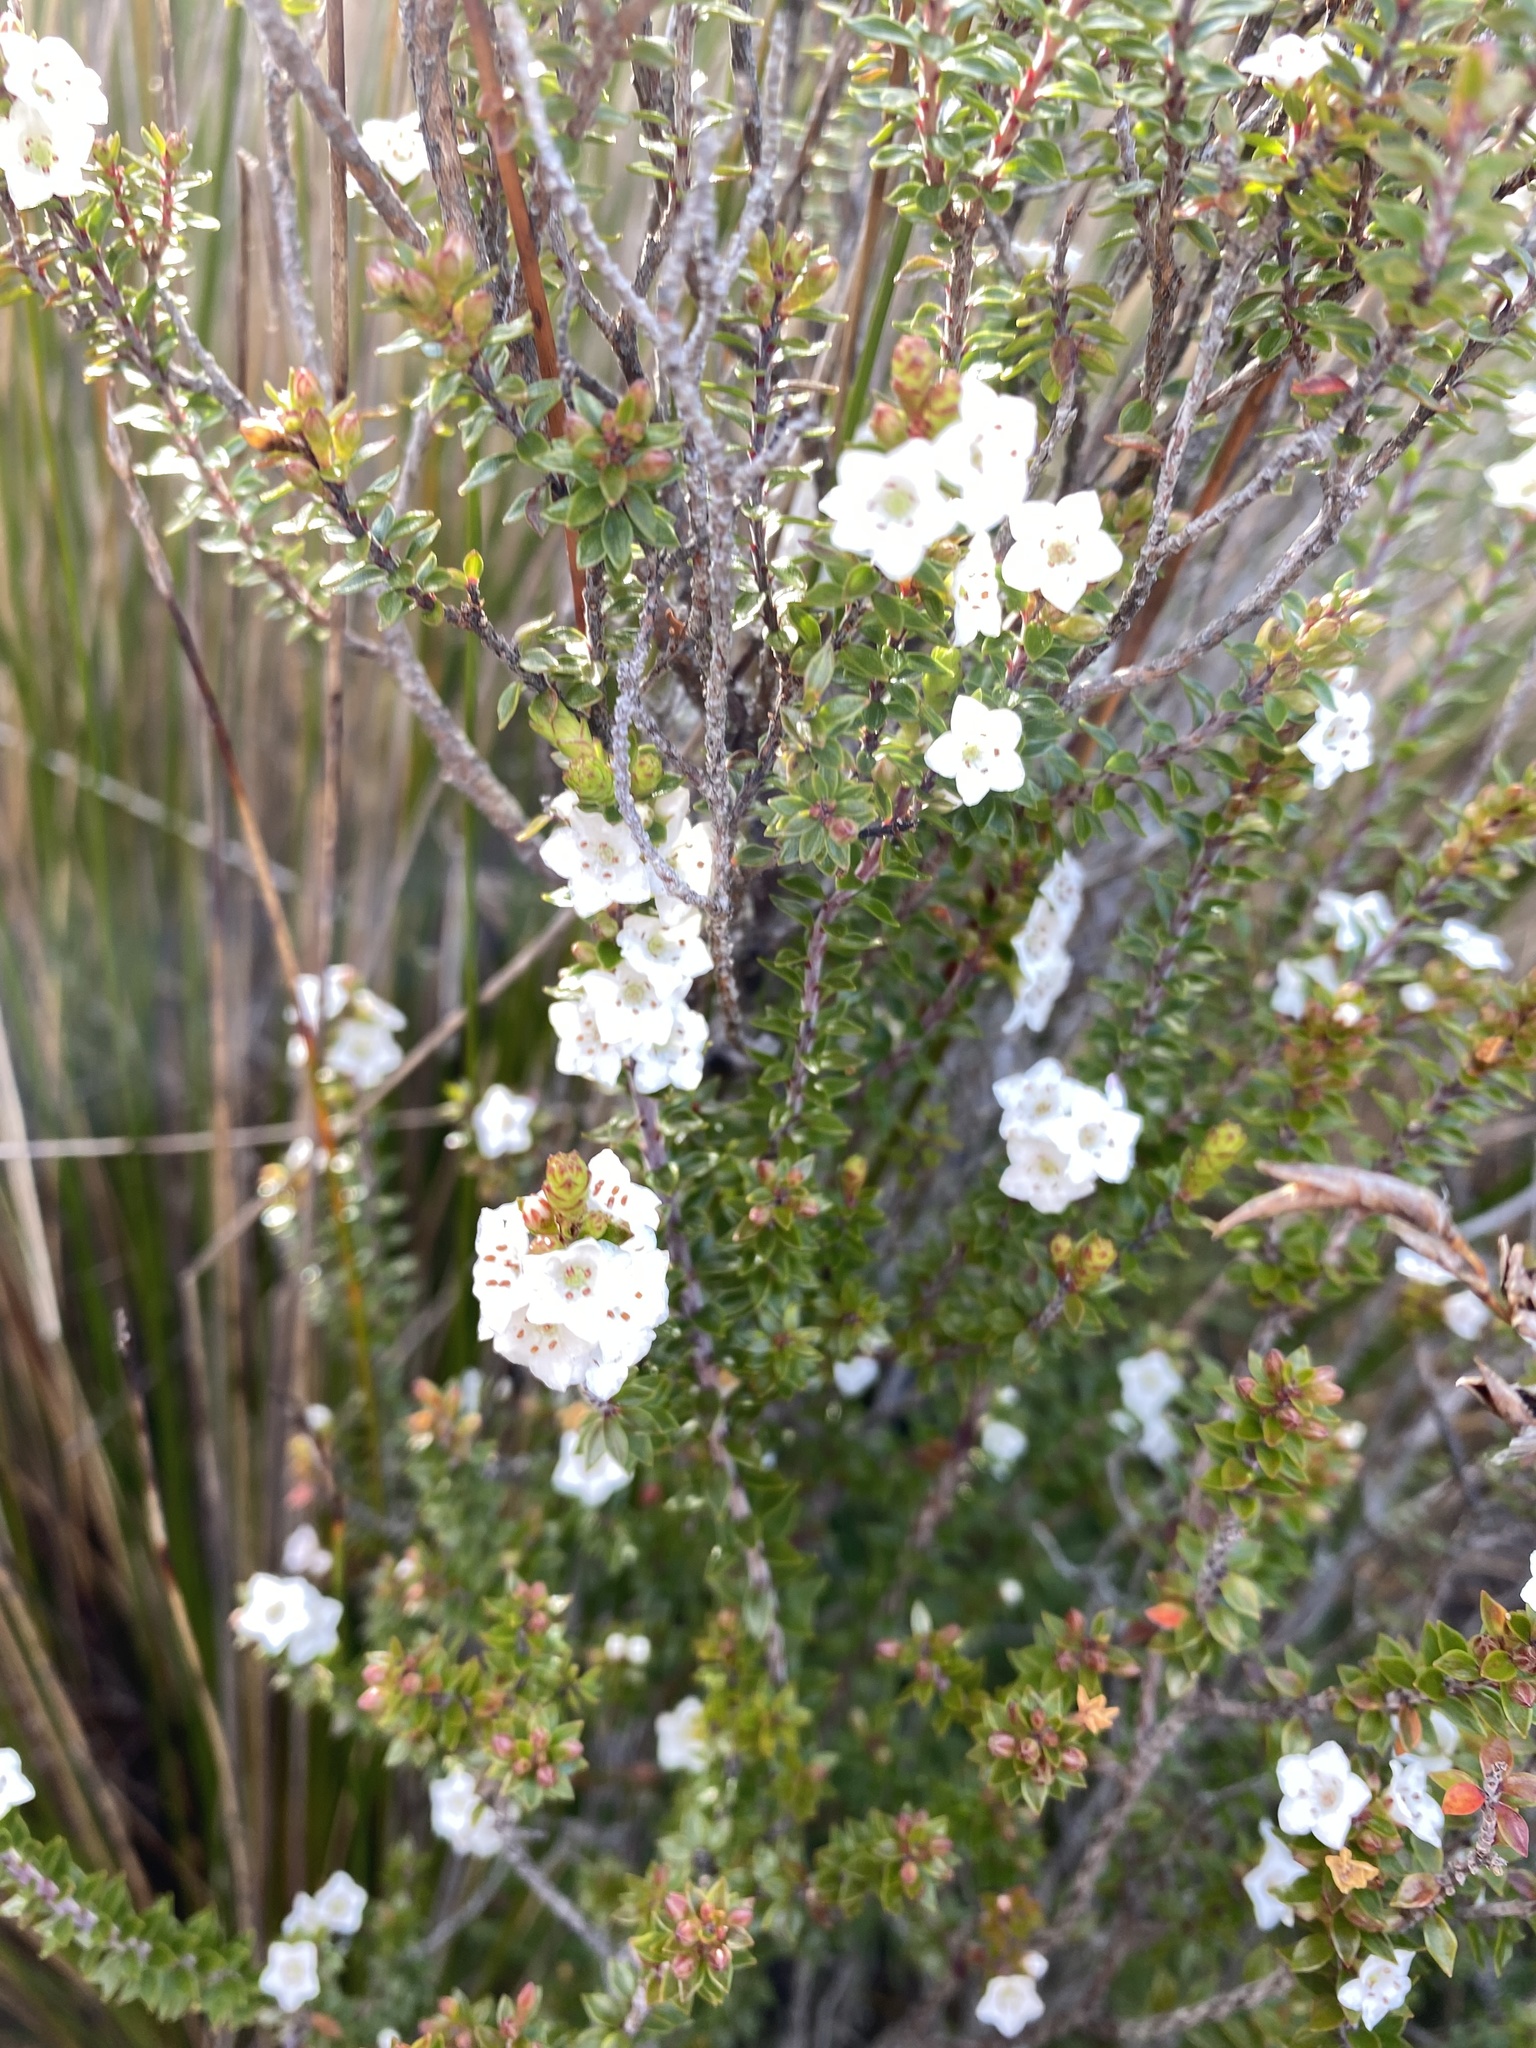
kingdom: Plantae
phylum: Tracheophyta
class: Magnoliopsida
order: Ericales
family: Ericaceae
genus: Epacris
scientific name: Epacris pauciflora
